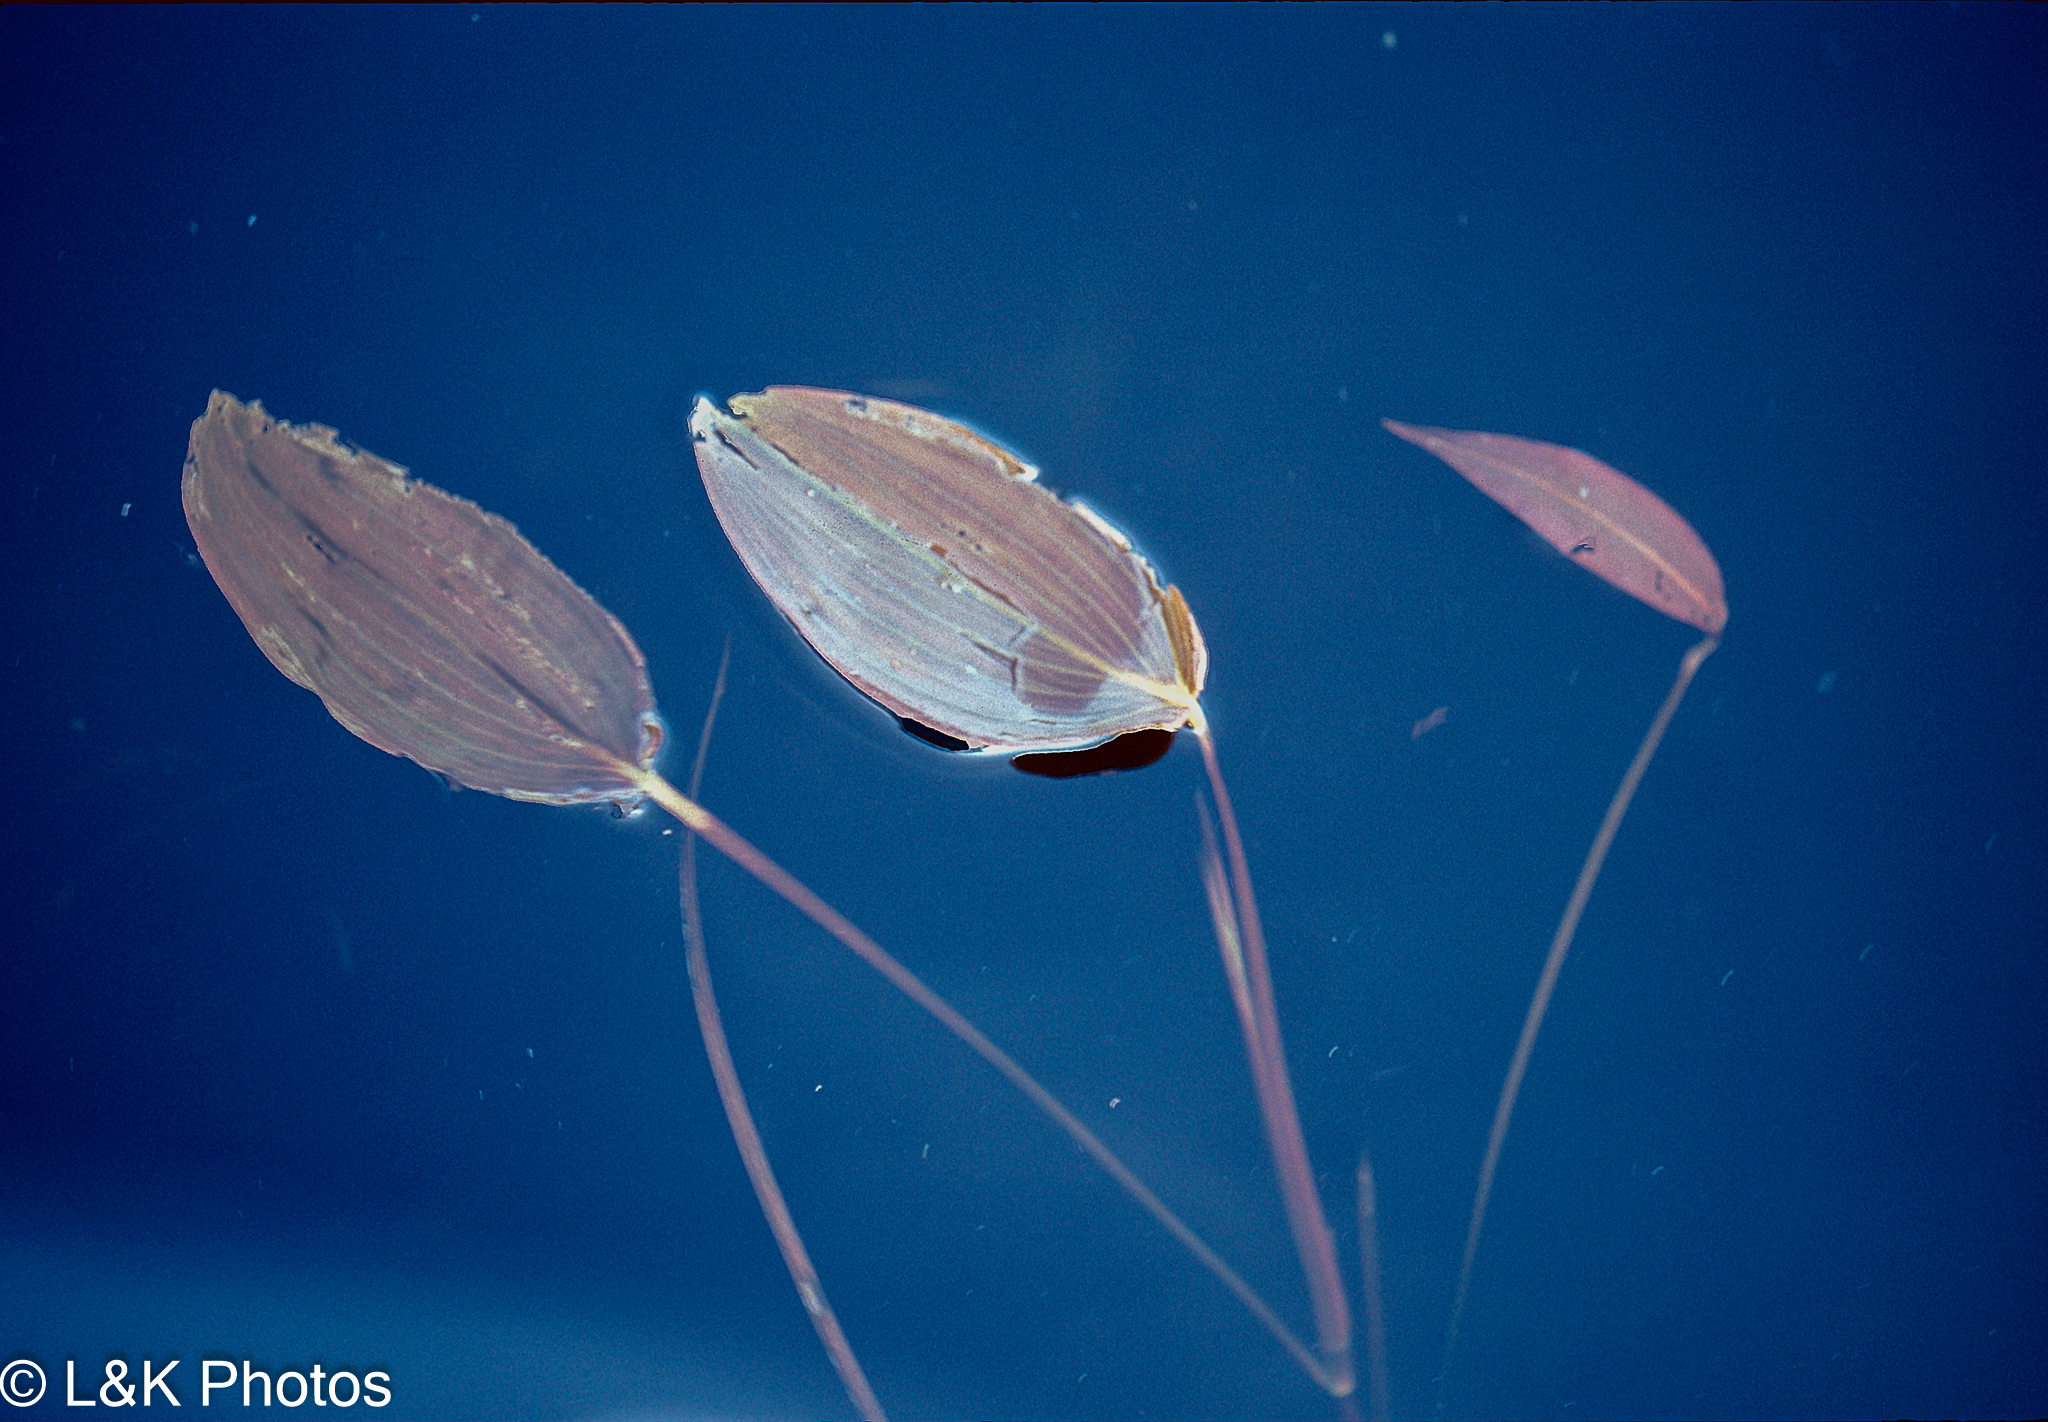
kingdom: Plantae
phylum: Tracheophyta
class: Liliopsida
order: Alismatales
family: Potamogetonaceae
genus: Potamogeton
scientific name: Potamogeton natans
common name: Broad-leaved pondweed
